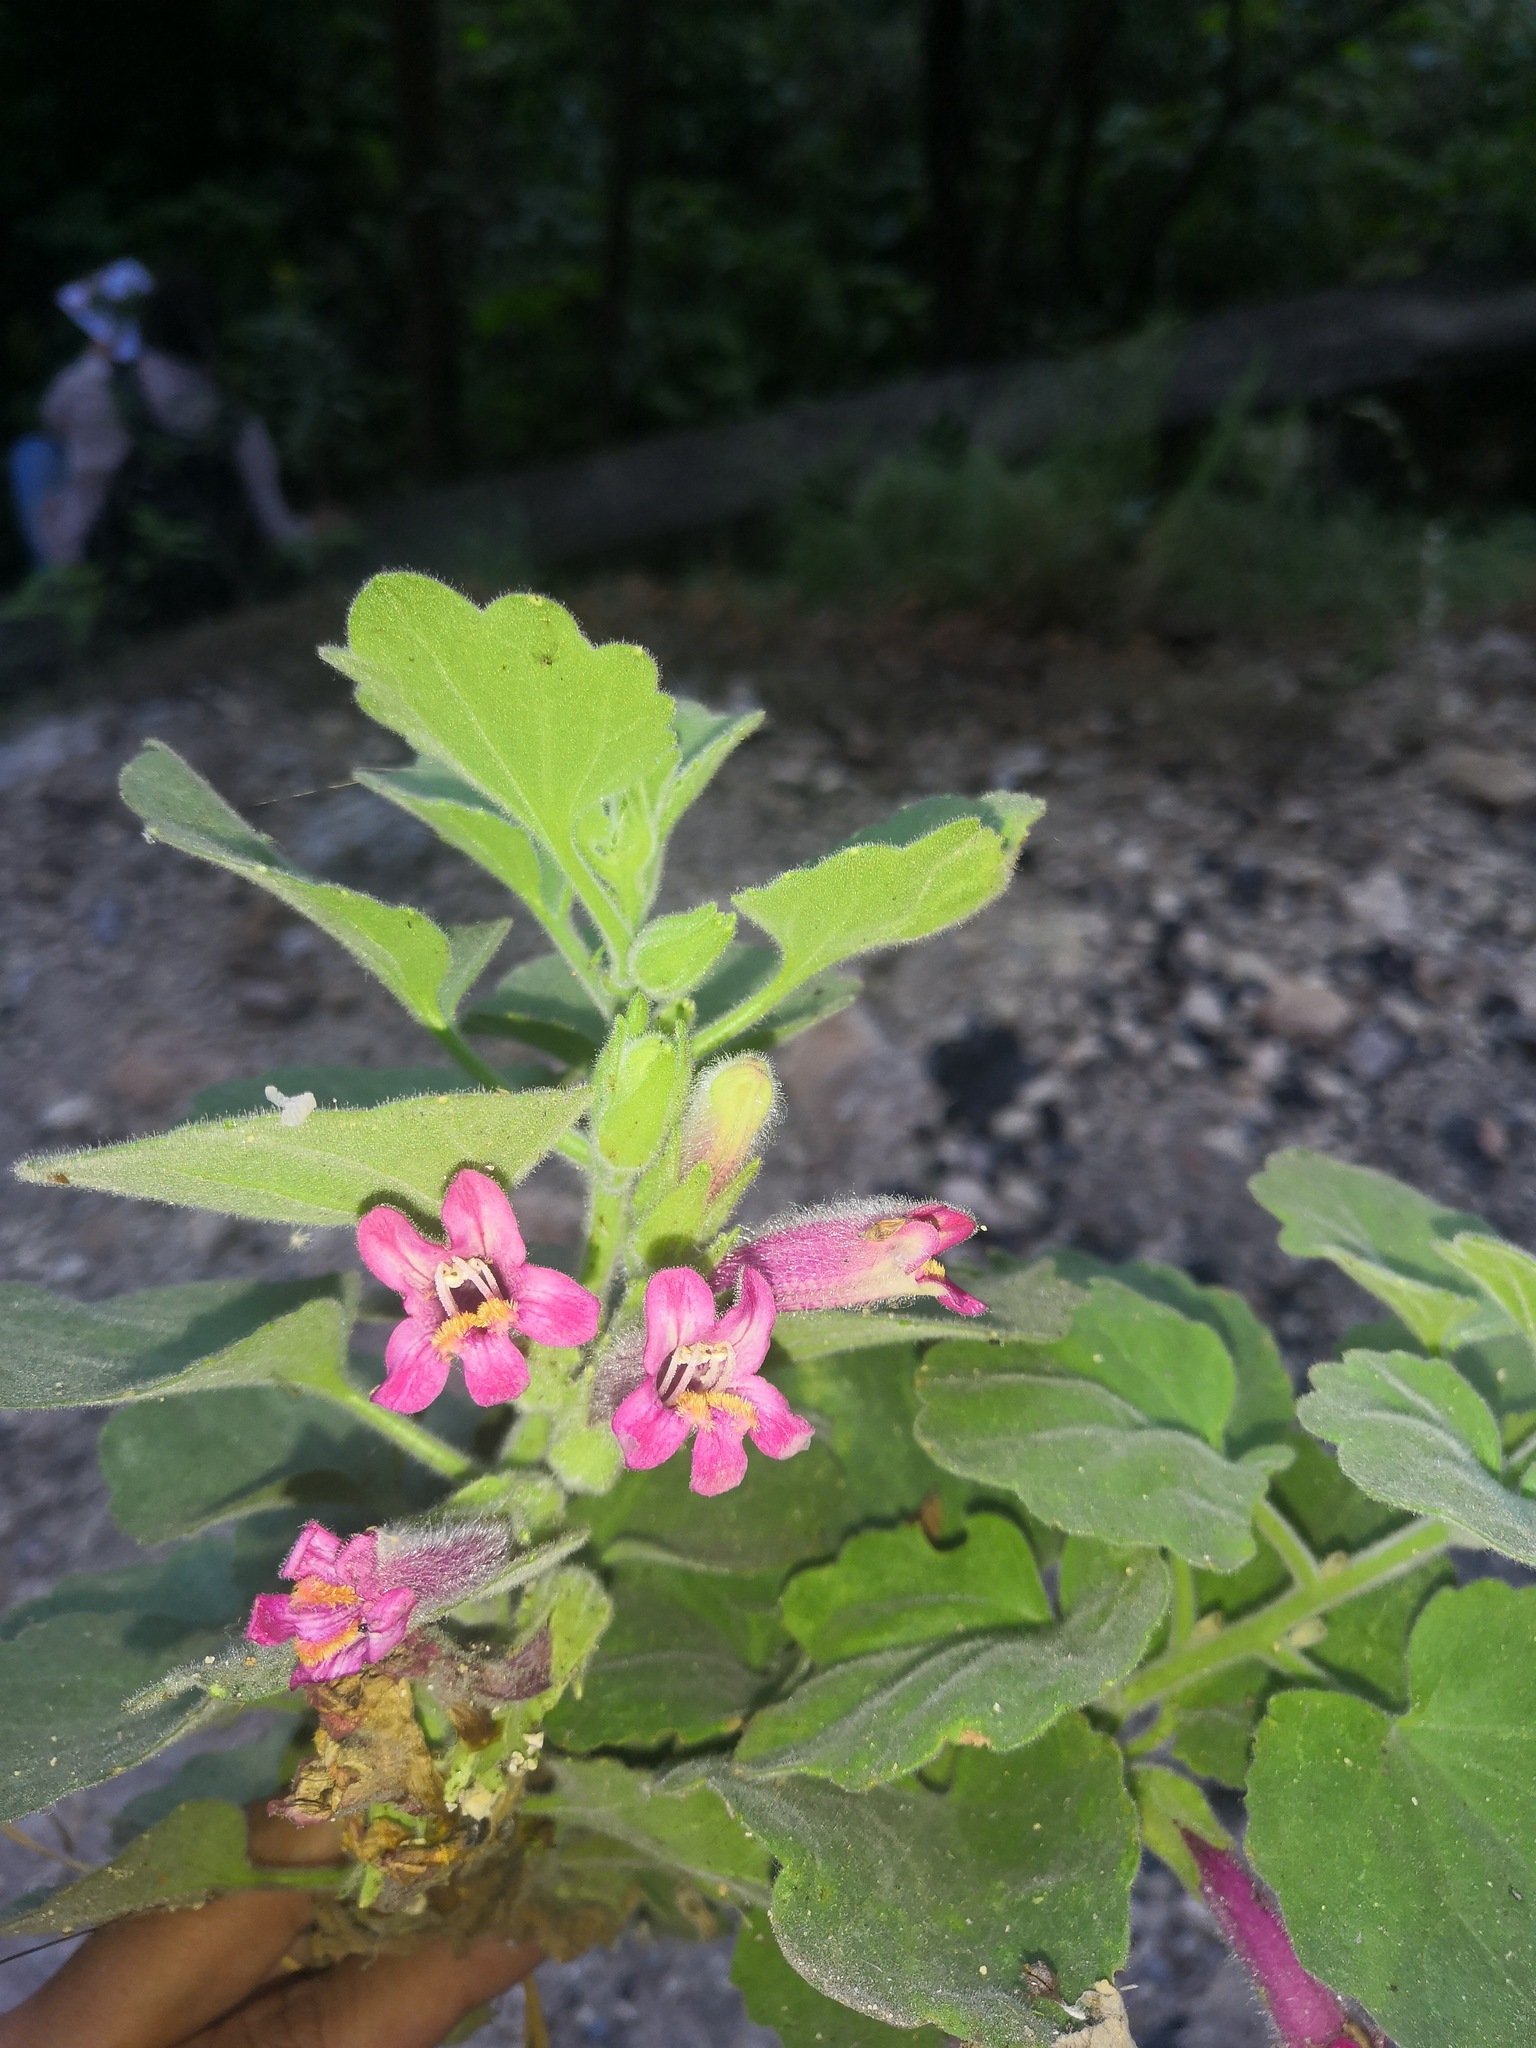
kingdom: Plantae
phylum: Tracheophyta
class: Magnoliopsida
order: Lamiales
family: Plantaginaceae
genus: Mabrya
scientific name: Mabrya rosei
